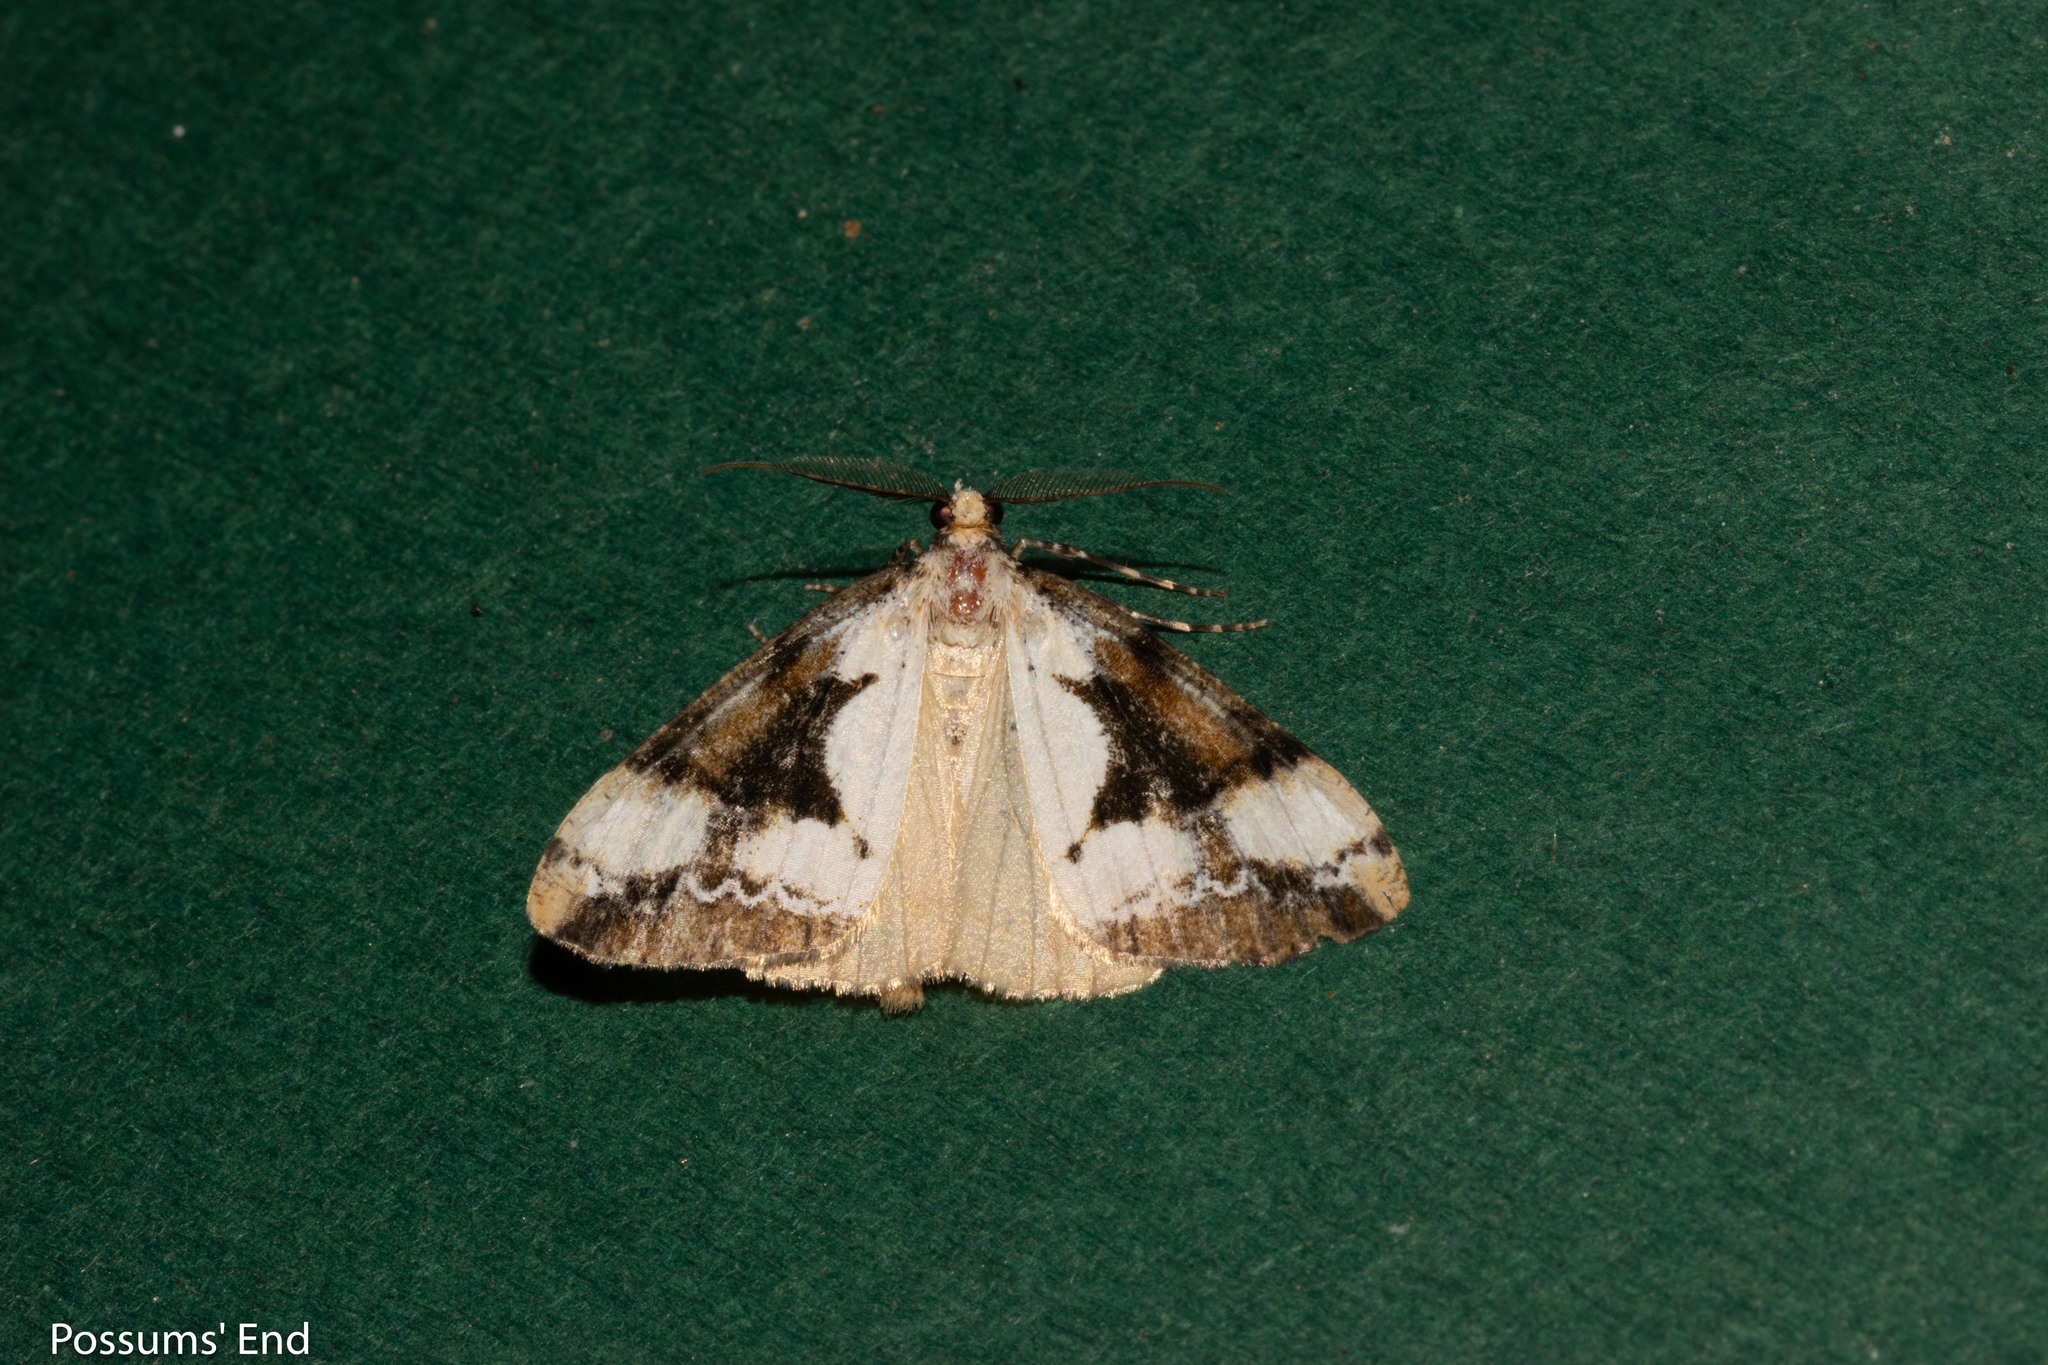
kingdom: Animalia
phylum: Arthropoda
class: Insecta
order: Lepidoptera
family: Geometridae
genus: Pseudocoremia
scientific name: Pseudocoremia leucelaea
